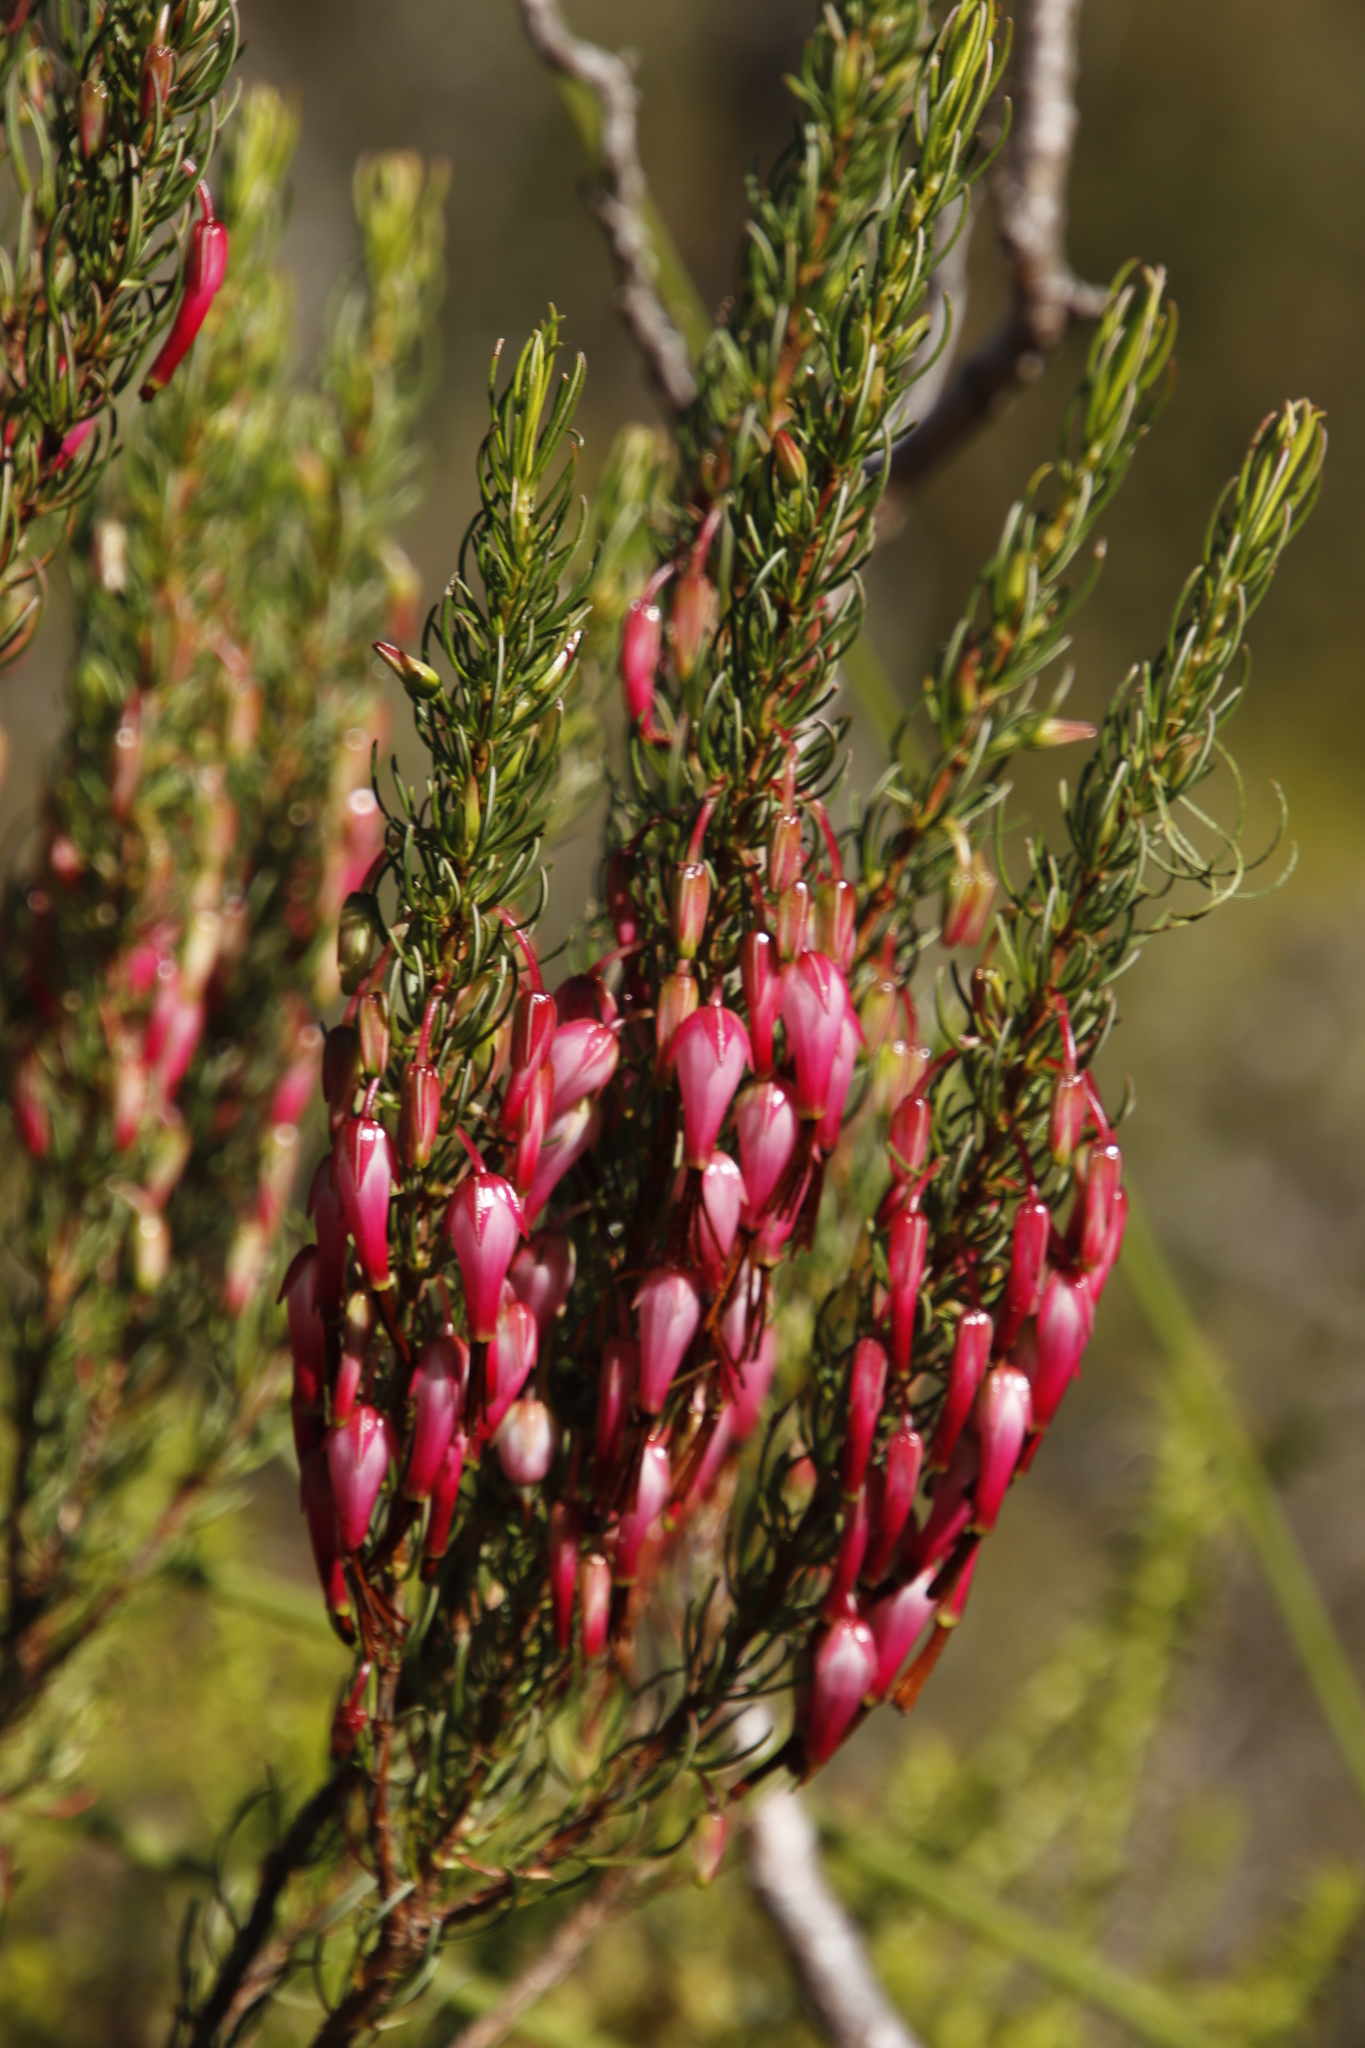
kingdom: Plantae
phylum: Tracheophyta
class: Magnoliopsida
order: Ericales
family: Ericaceae
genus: Erica
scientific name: Erica plukenetii
